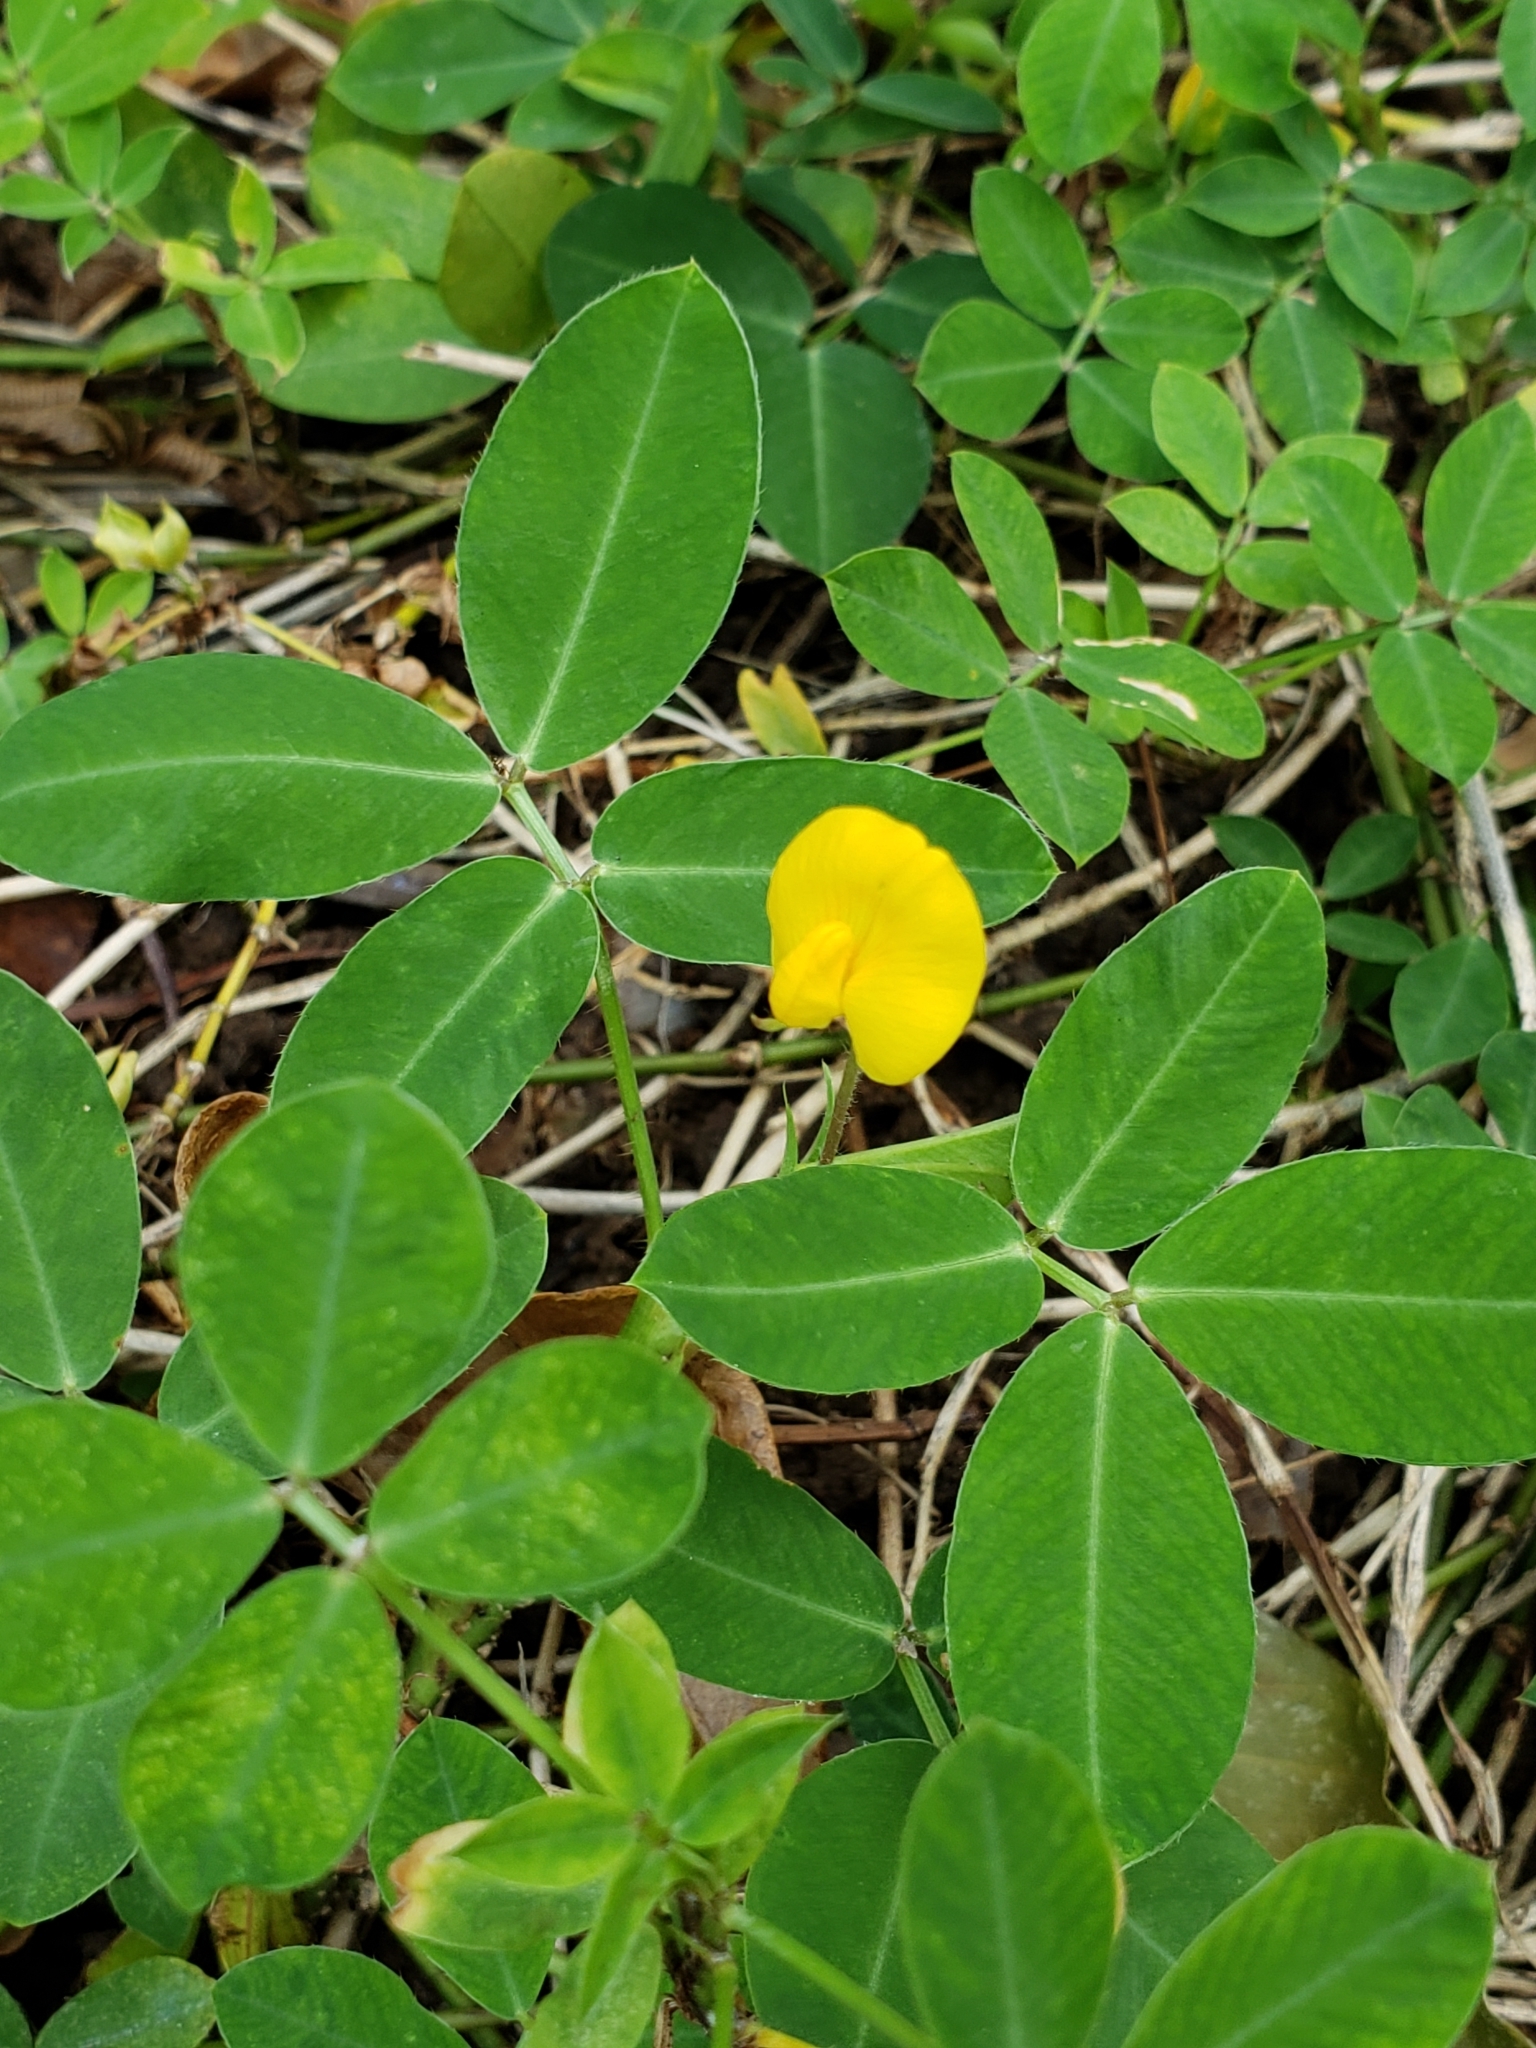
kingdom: Plantae
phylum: Tracheophyta
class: Magnoliopsida
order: Fabales
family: Fabaceae
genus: Arachis
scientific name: Arachis repens
